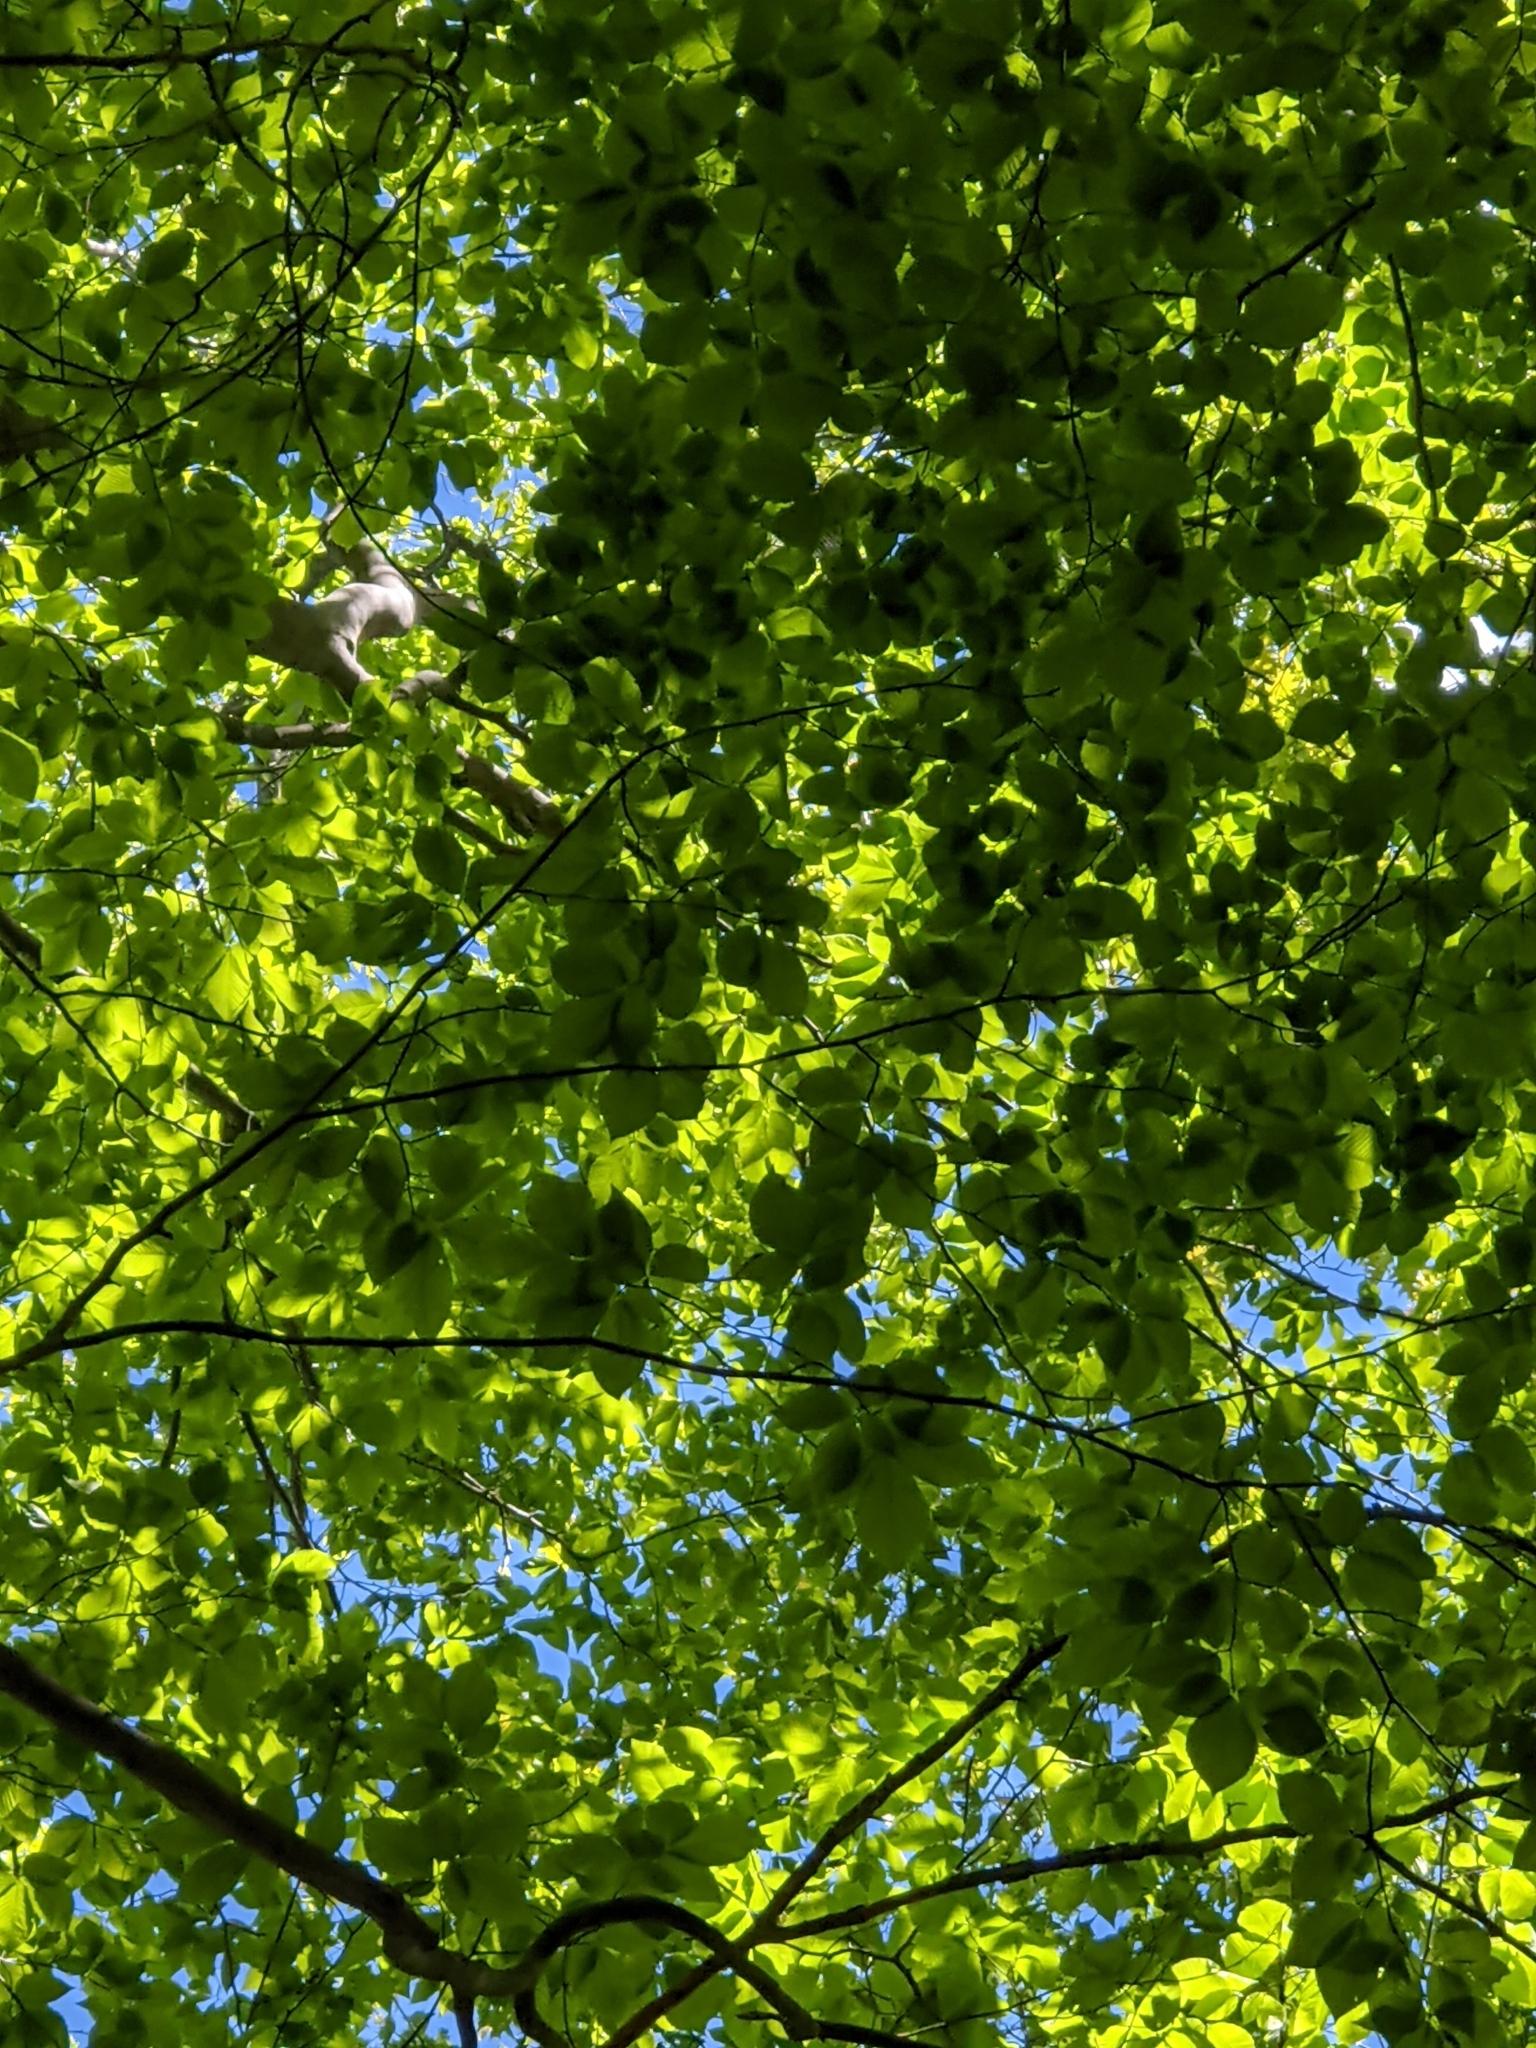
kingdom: Plantae
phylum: Tracheophyta
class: Magnoliopsida
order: Fagales
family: Fagaceae
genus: Fagus
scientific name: Fagus grandifolia
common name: American beech
